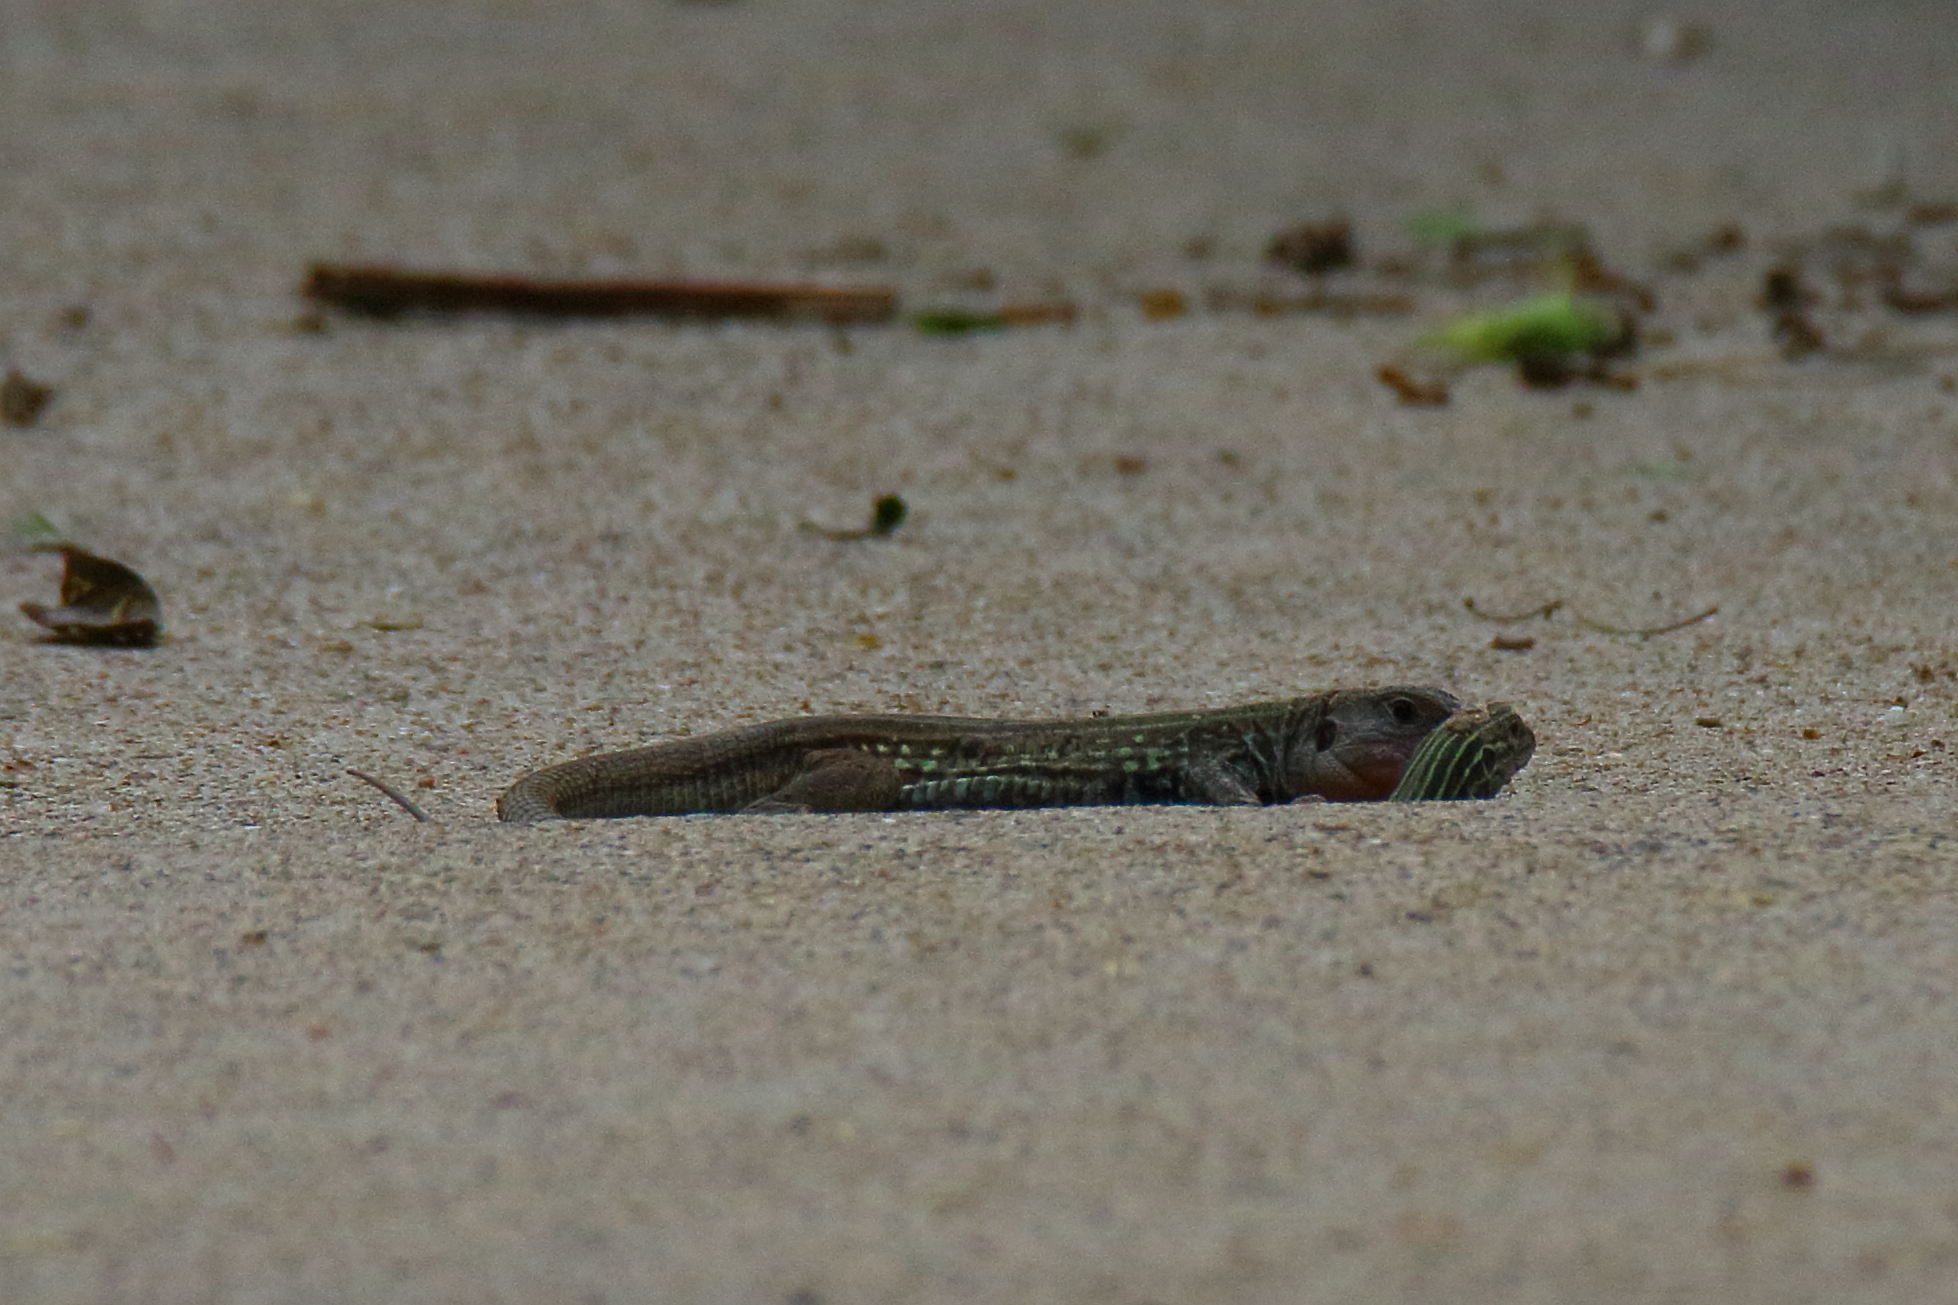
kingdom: Animalia
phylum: Chordata
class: Squamata
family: Teiidae
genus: Aspidoscelis
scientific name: Aspidoscelis gularis
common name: Eastern spotted whiptail
